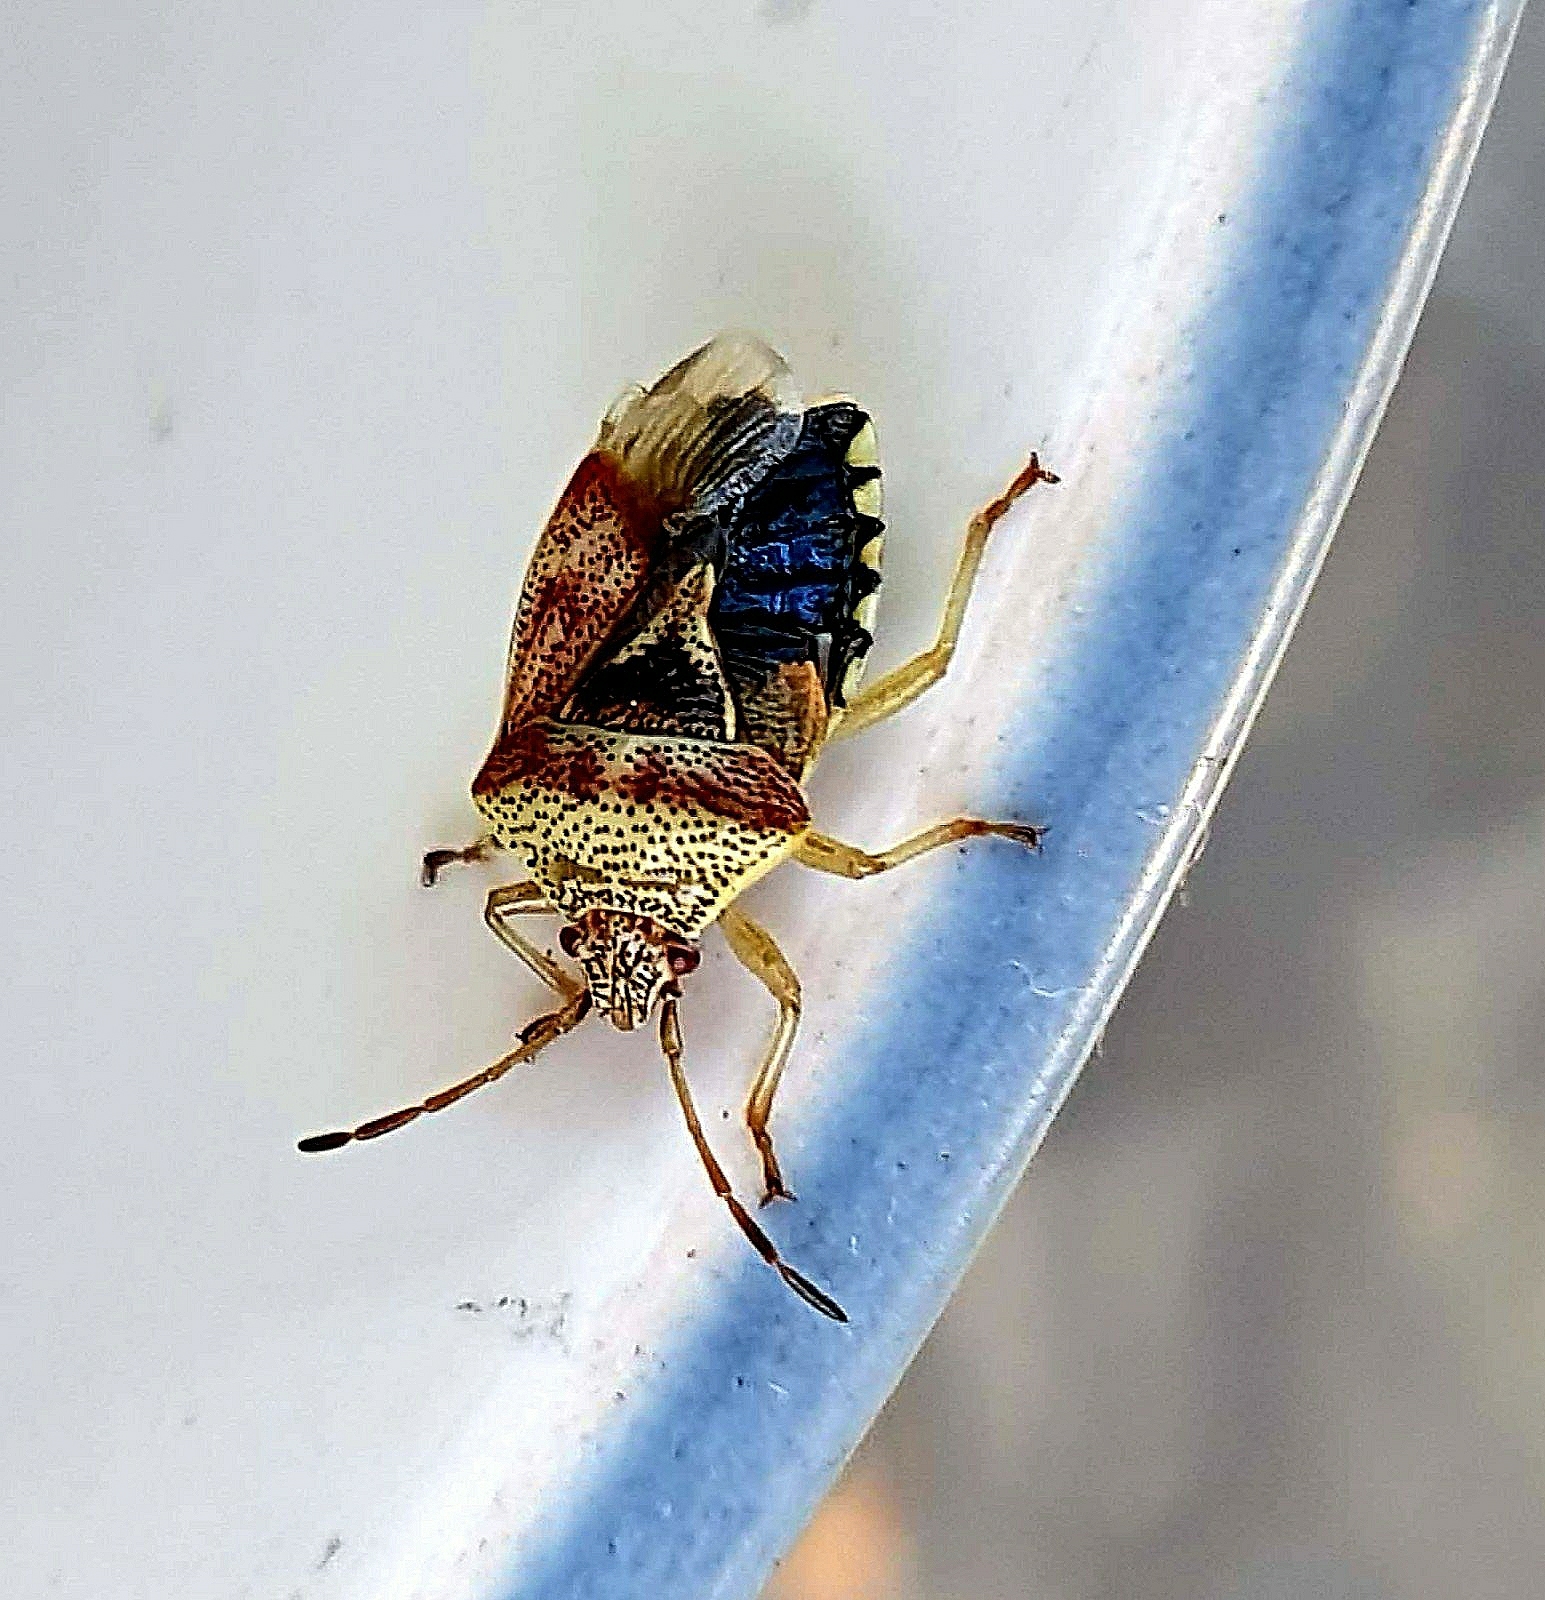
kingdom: Animalia
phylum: Arthropoda
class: Insecta
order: Hemiptera
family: Acanthosomatidae
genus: Elasmucha
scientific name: Elasmucha grisea
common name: Parent bug
